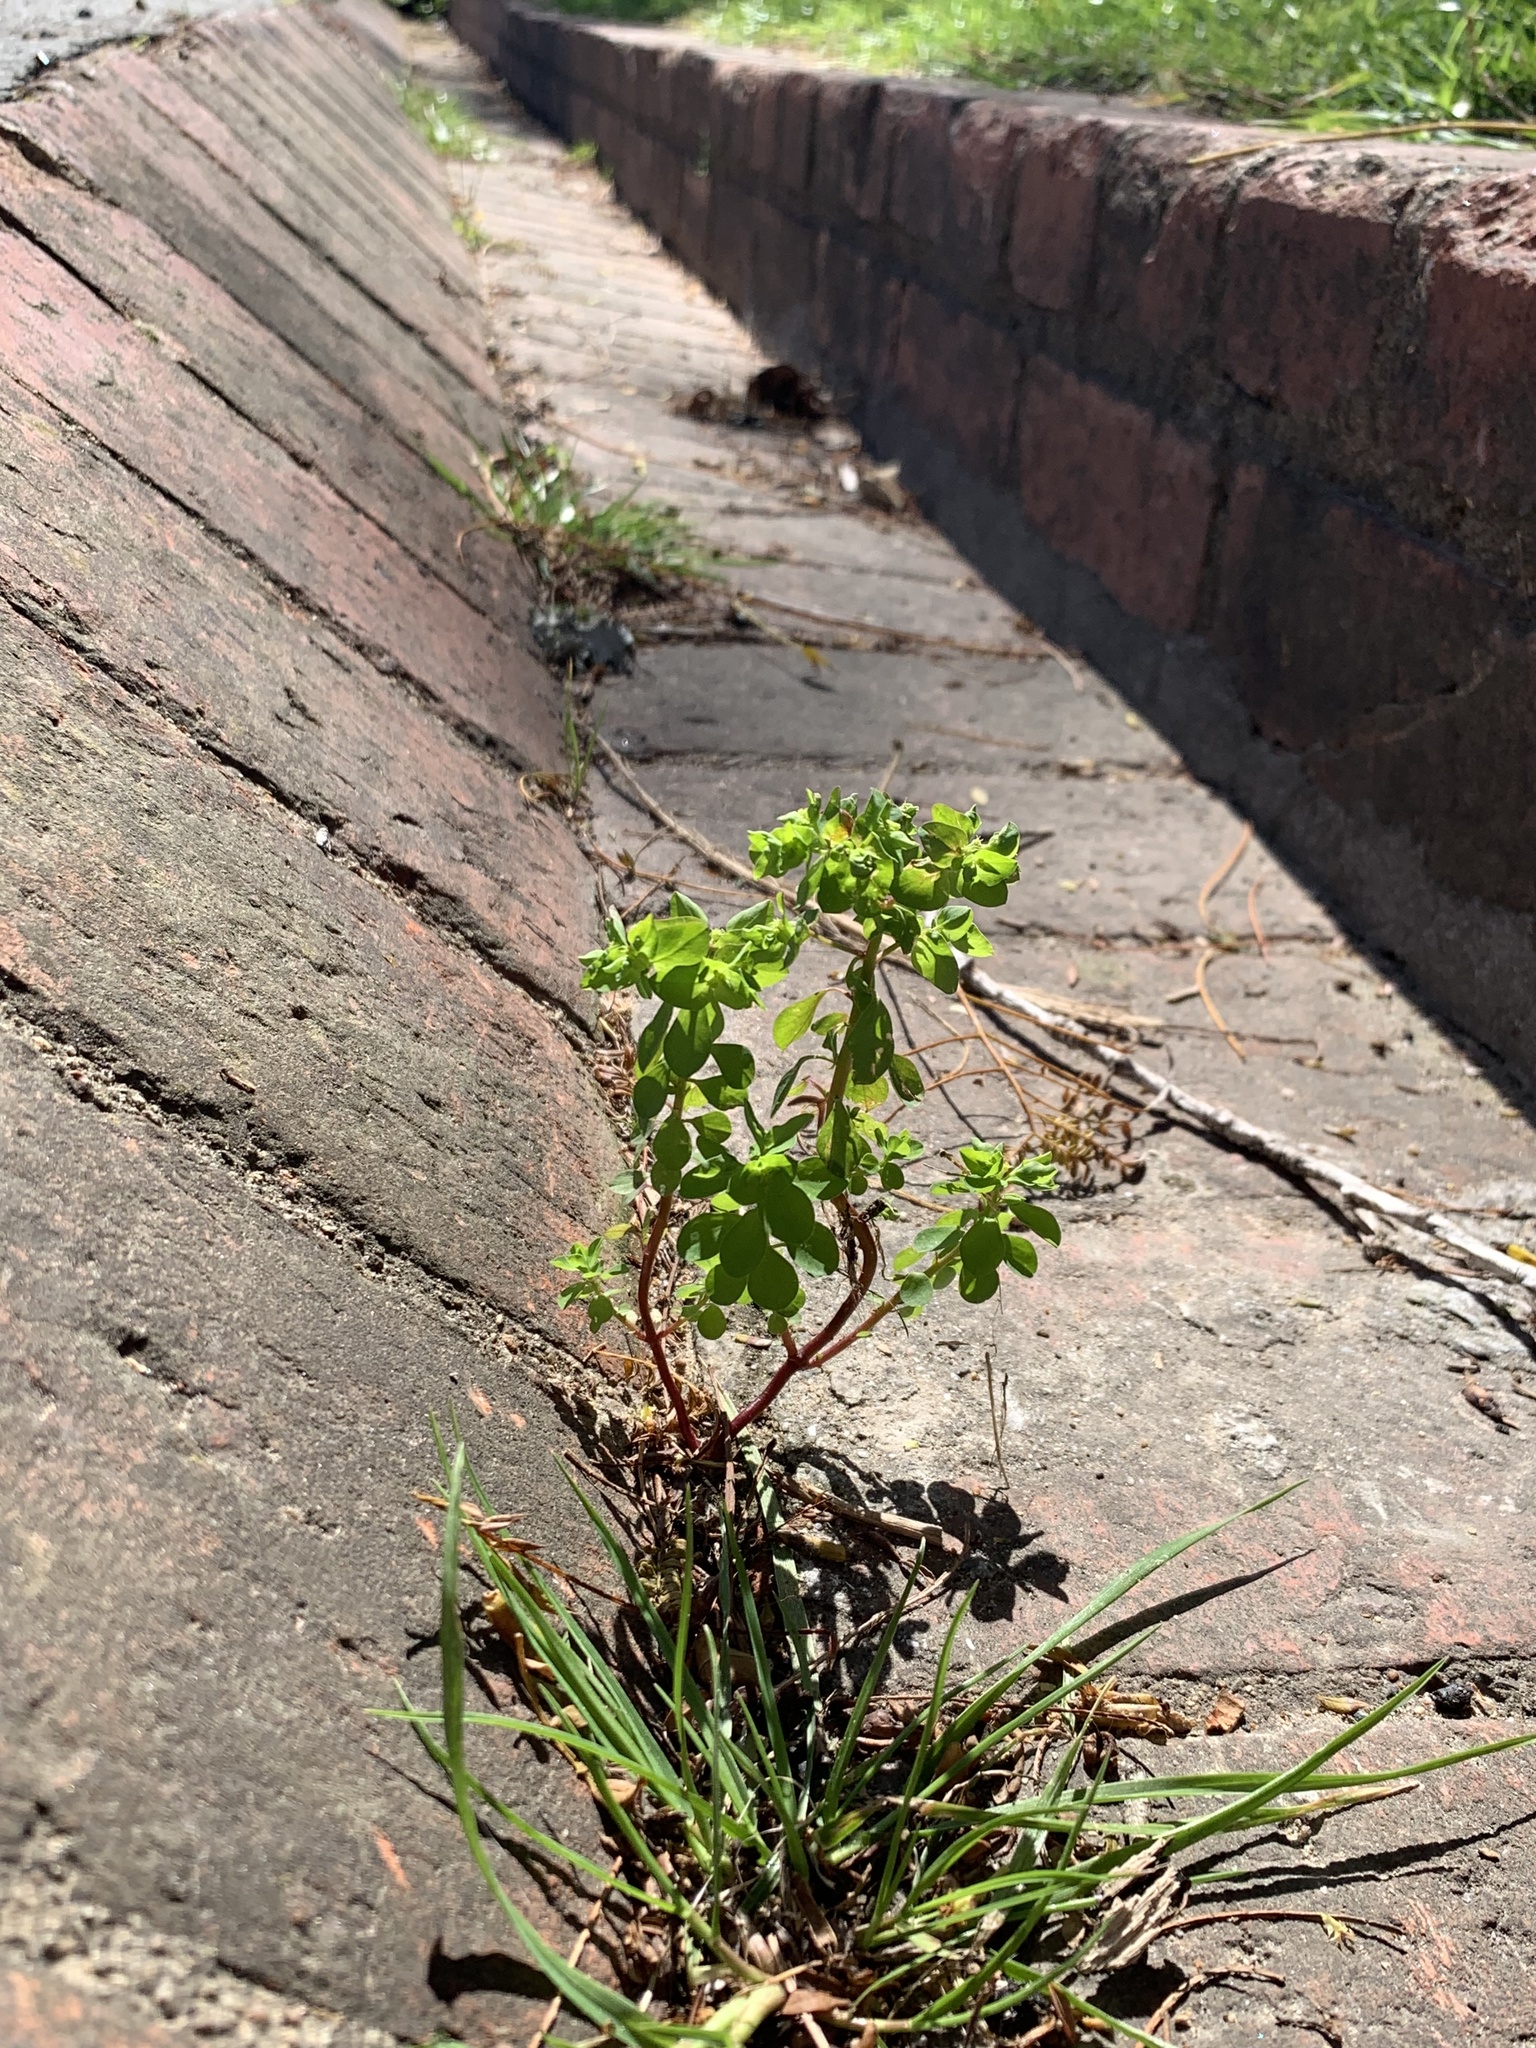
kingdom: Plantae
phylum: Tracheophyta
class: Magnoliopsida
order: Malpighiales
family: Euphorbiaceae
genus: Euphorbia
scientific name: Euphorbia peplus
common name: Petty spurge
